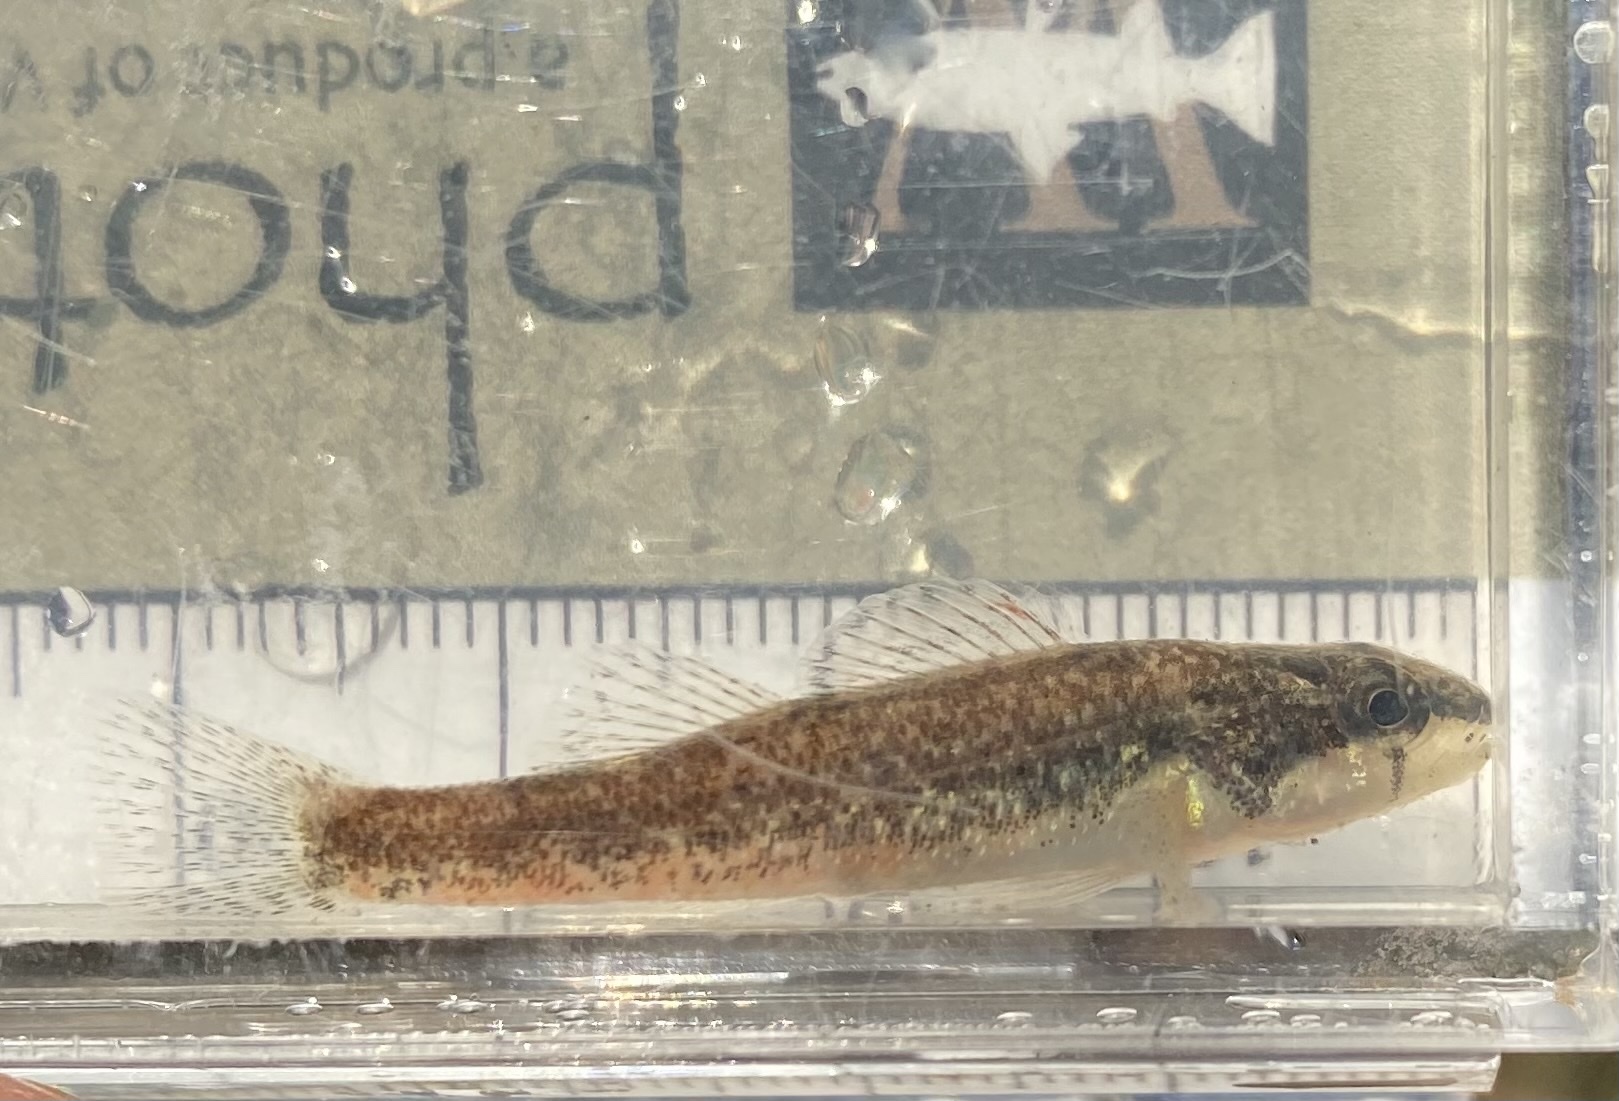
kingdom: Animalia
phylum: Chordata
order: Perciformes
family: Percidae
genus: Etheostoma
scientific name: Etheostoma trisella
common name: Trispot darter
